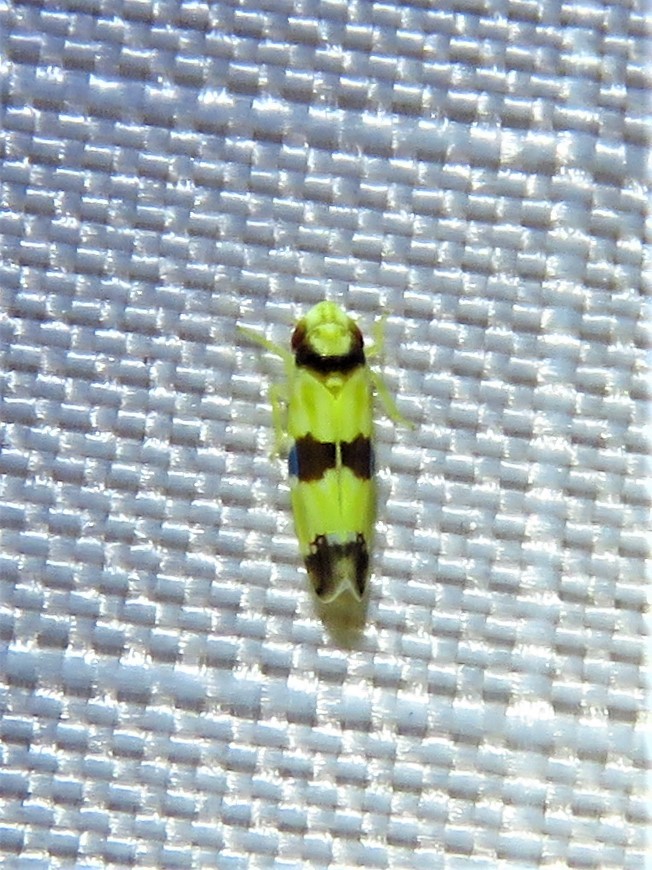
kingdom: Animalia
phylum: Arthropoda
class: Insecta
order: Hemiptera
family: Cicadellidae
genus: Erythroneura
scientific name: Erythroneura calycula
